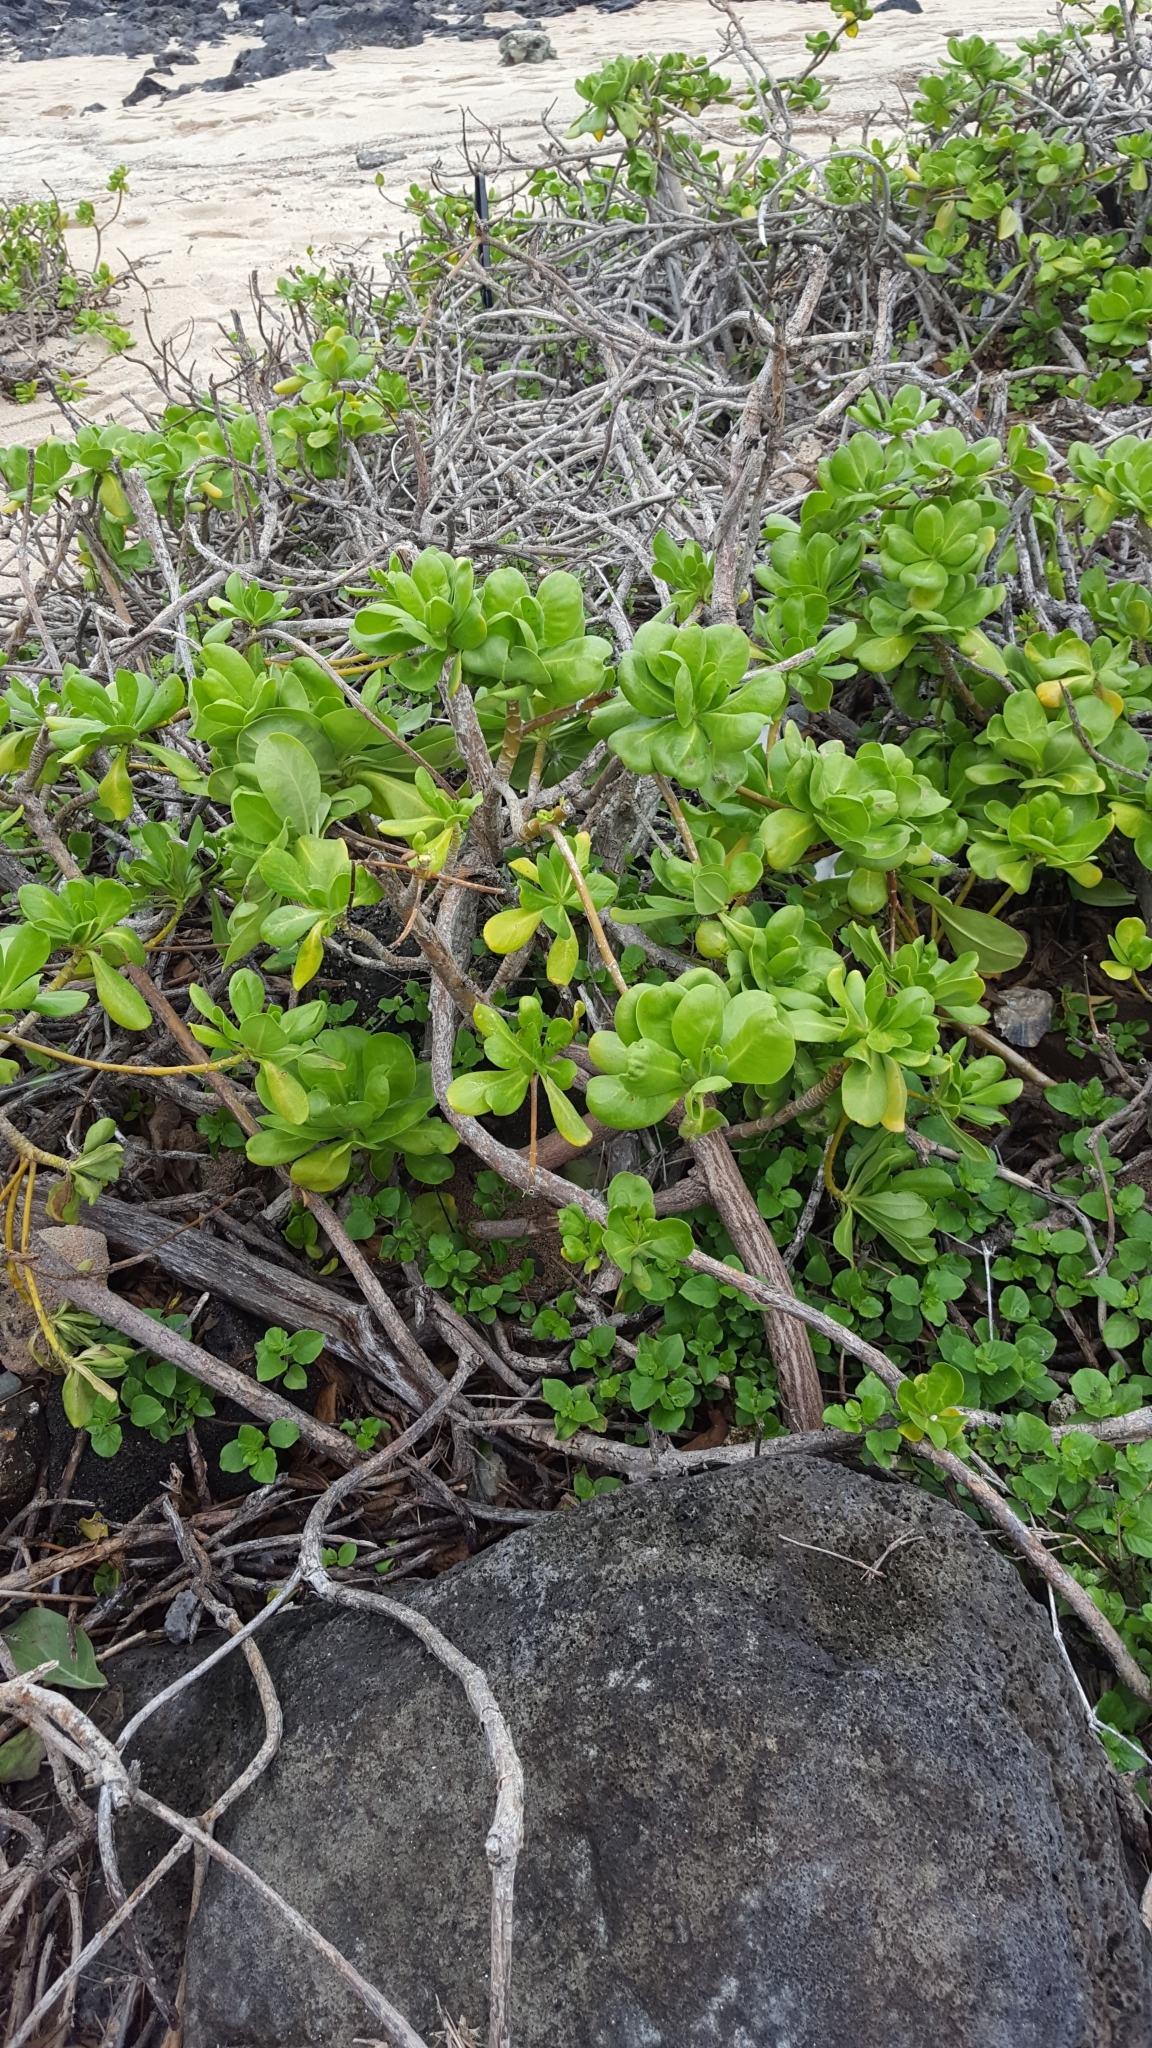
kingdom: Plantae
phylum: Tracheophyta
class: Magnoliopsida
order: Asterales
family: Goodeniaceae
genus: Scaevola
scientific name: Scaevola taccada
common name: Sea lettucetree
